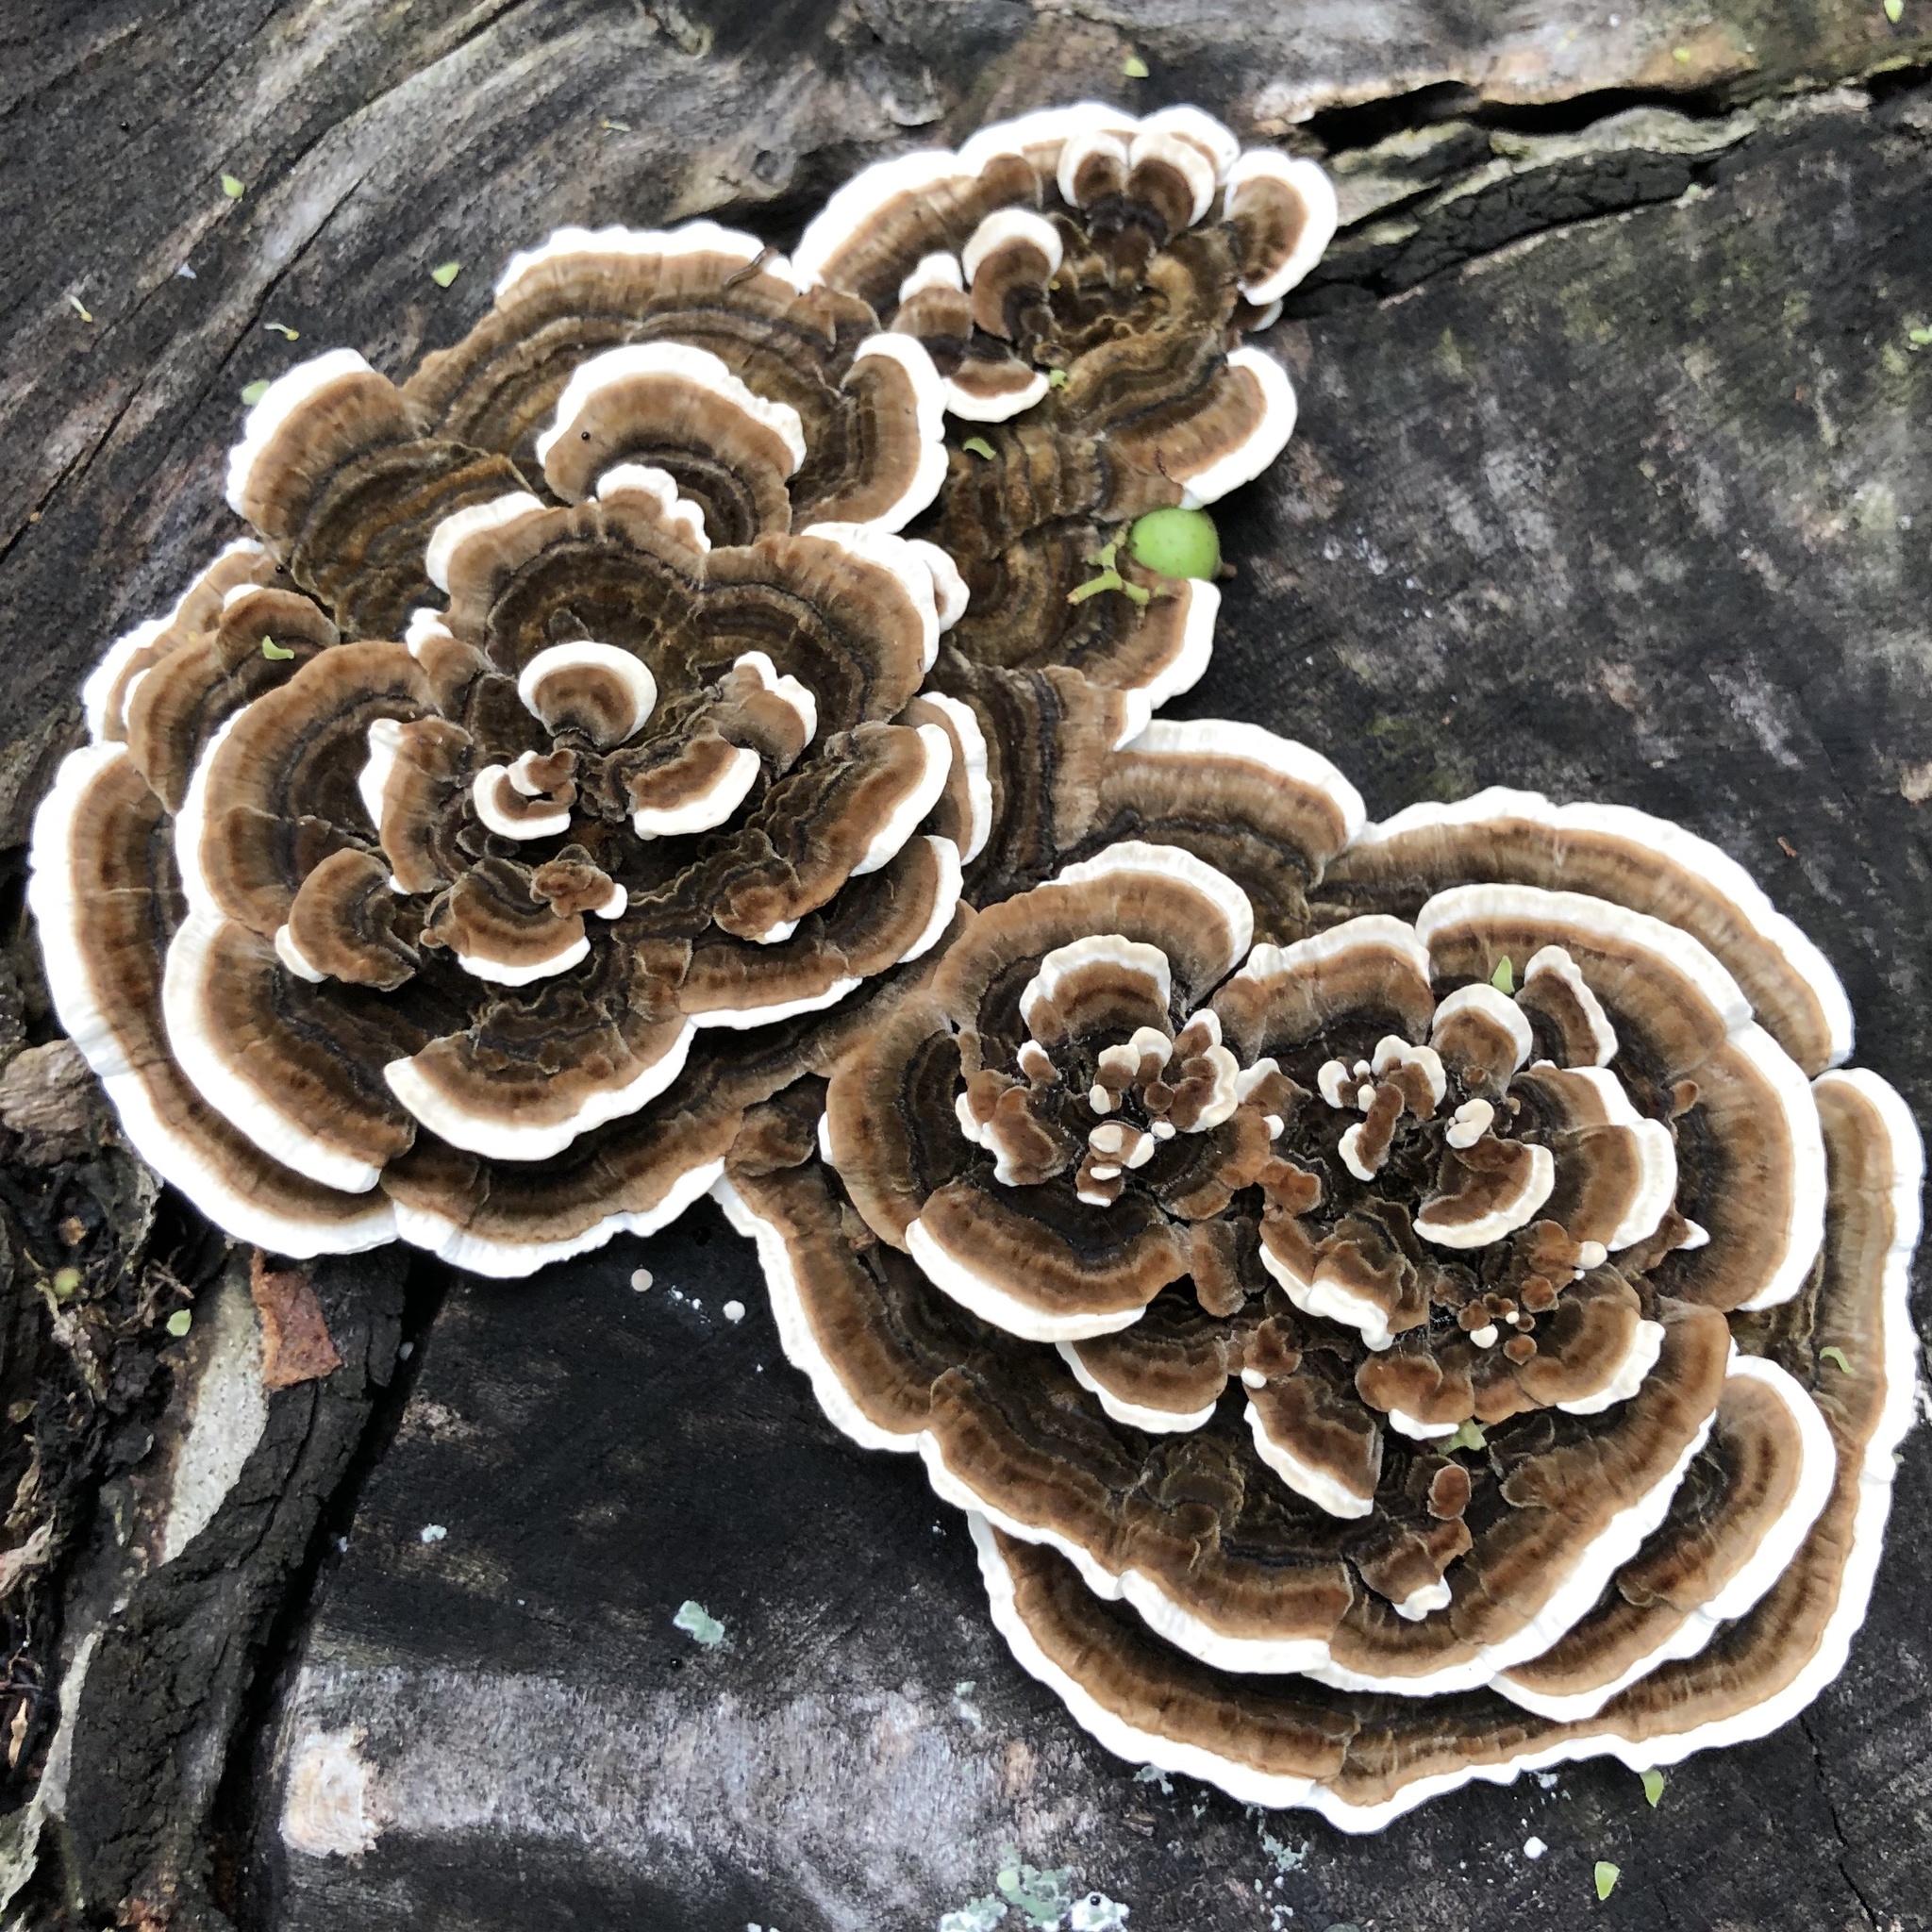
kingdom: Fungi
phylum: Basidiomycota
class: Agaricomycetes
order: Polyporales
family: Polyporaceae
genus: Trametes
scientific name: Trametes versicolor
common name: Turkeytail
